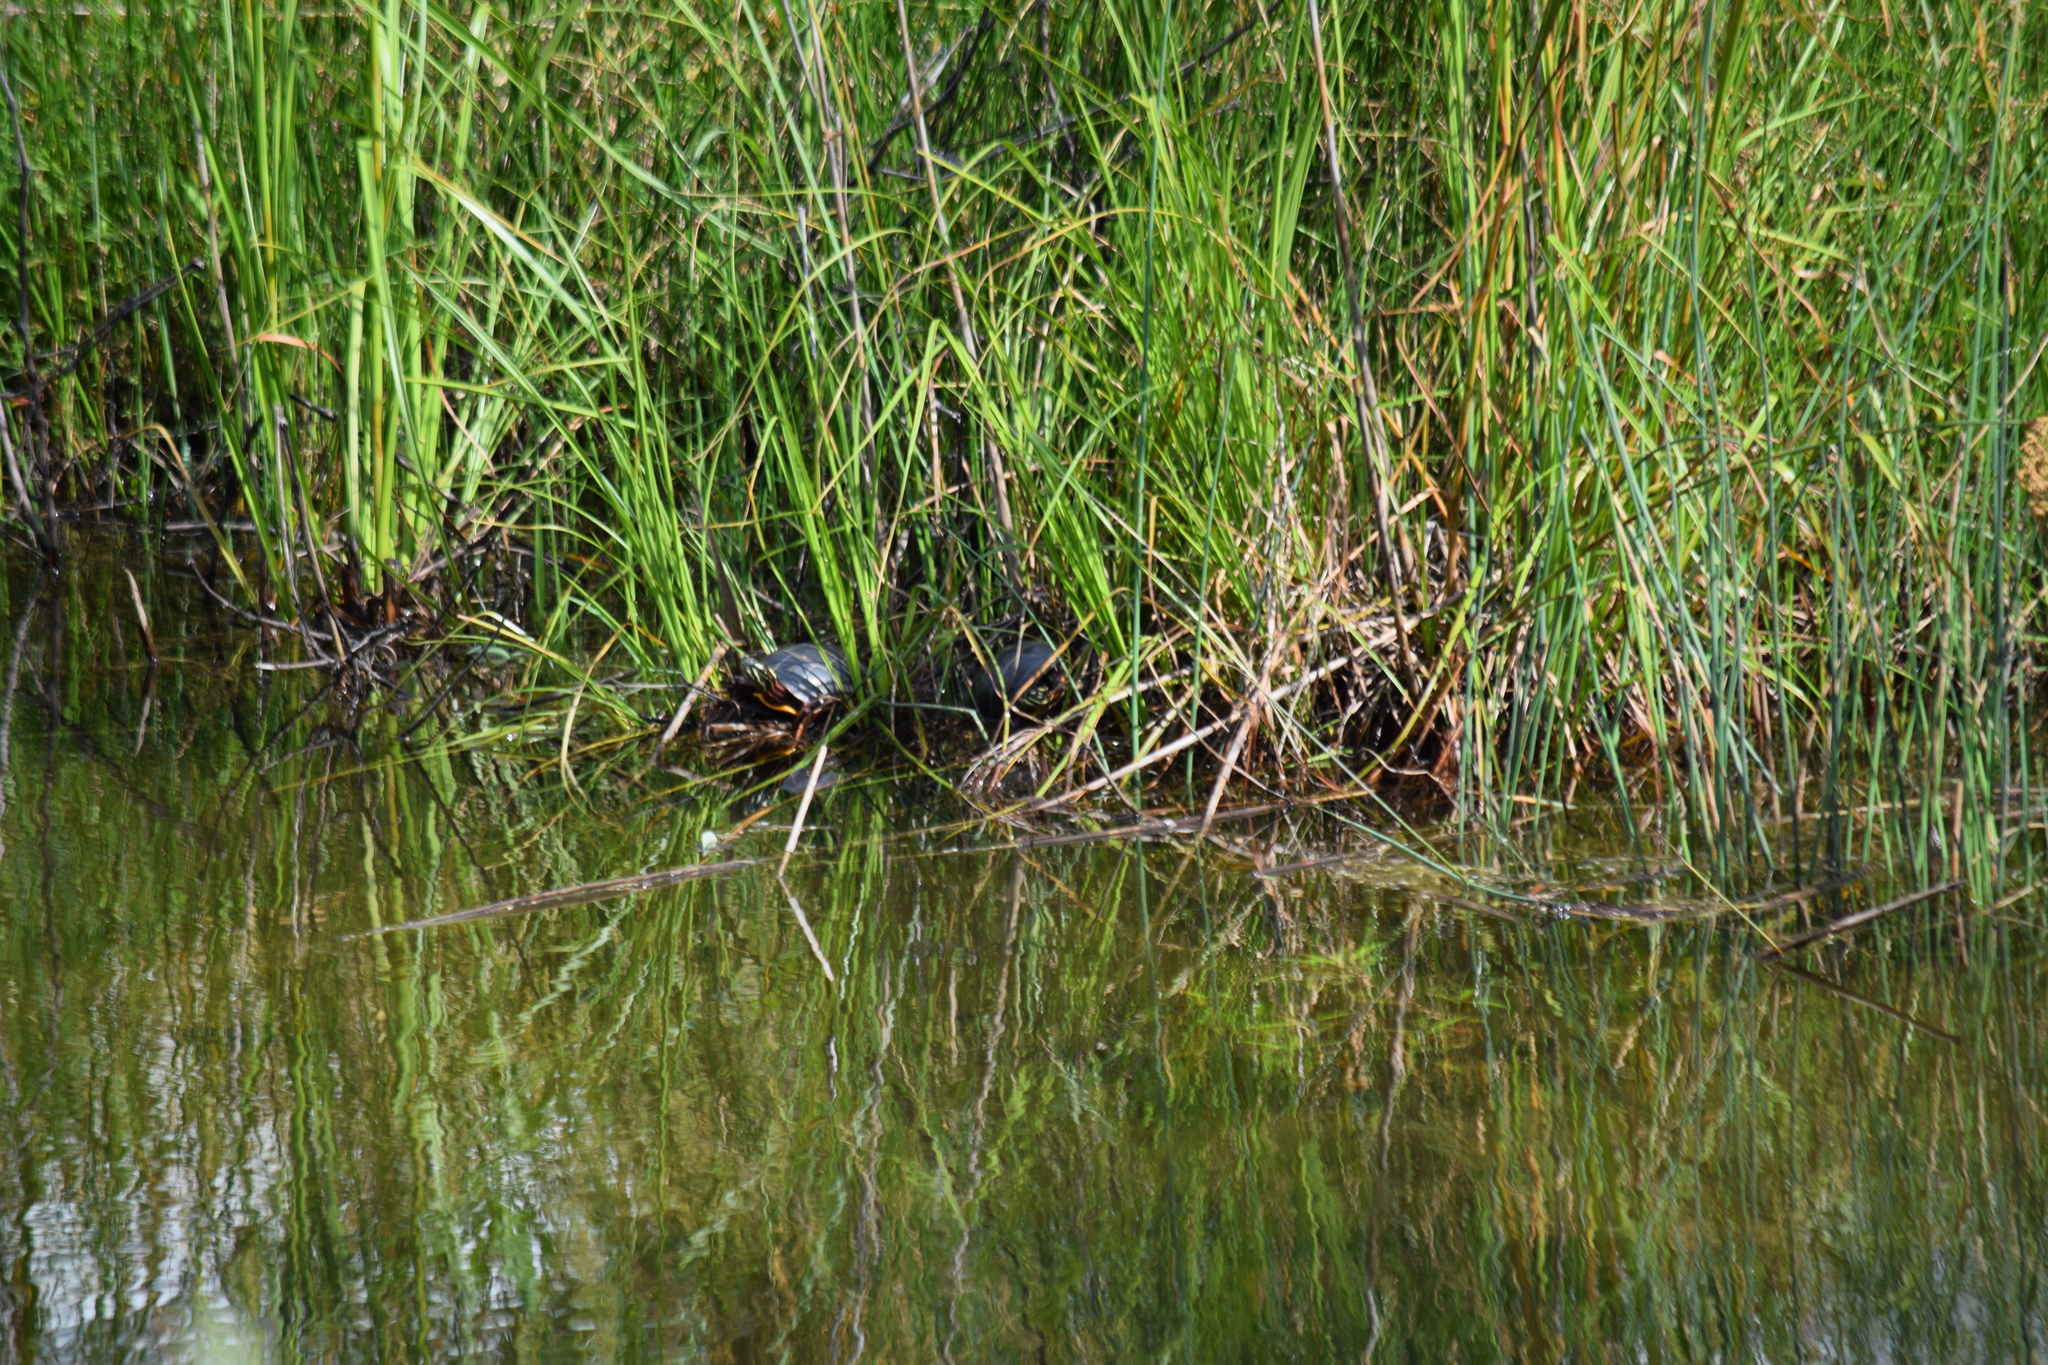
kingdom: Animalia
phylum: Chordata
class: Testudines
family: Emydidae
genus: Chrysemys
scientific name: Chrysemys picta
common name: Painted turtle
